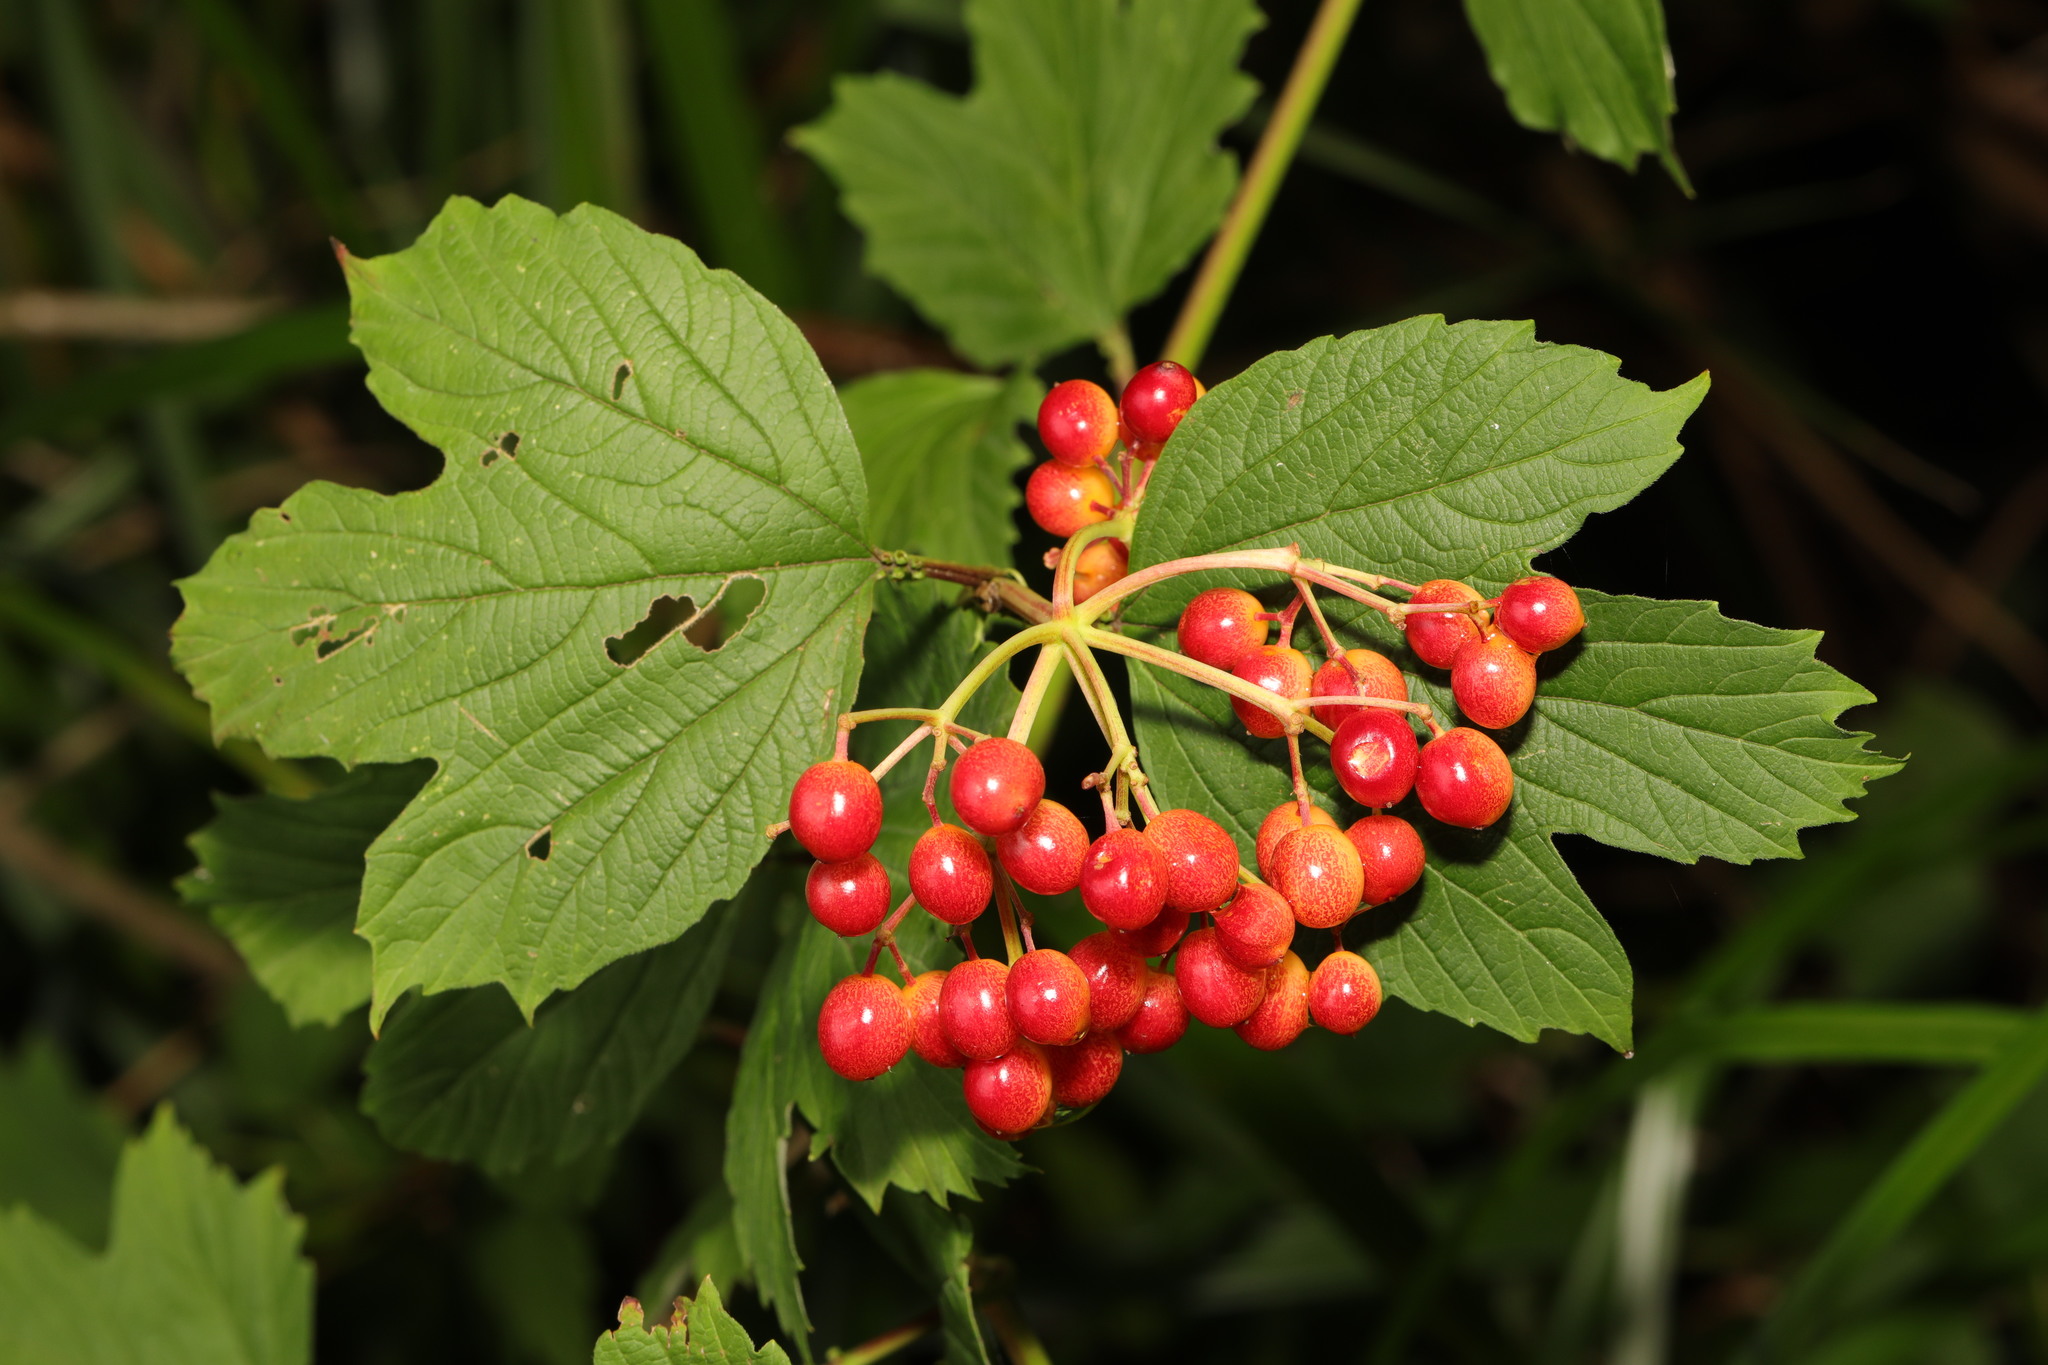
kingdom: Plantae
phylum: Tracheophyta
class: Magnoliopsida
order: Dipsacales
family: Viburnaceae
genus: Viburnum
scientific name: Viburnum opulus
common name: Guelder-rose
